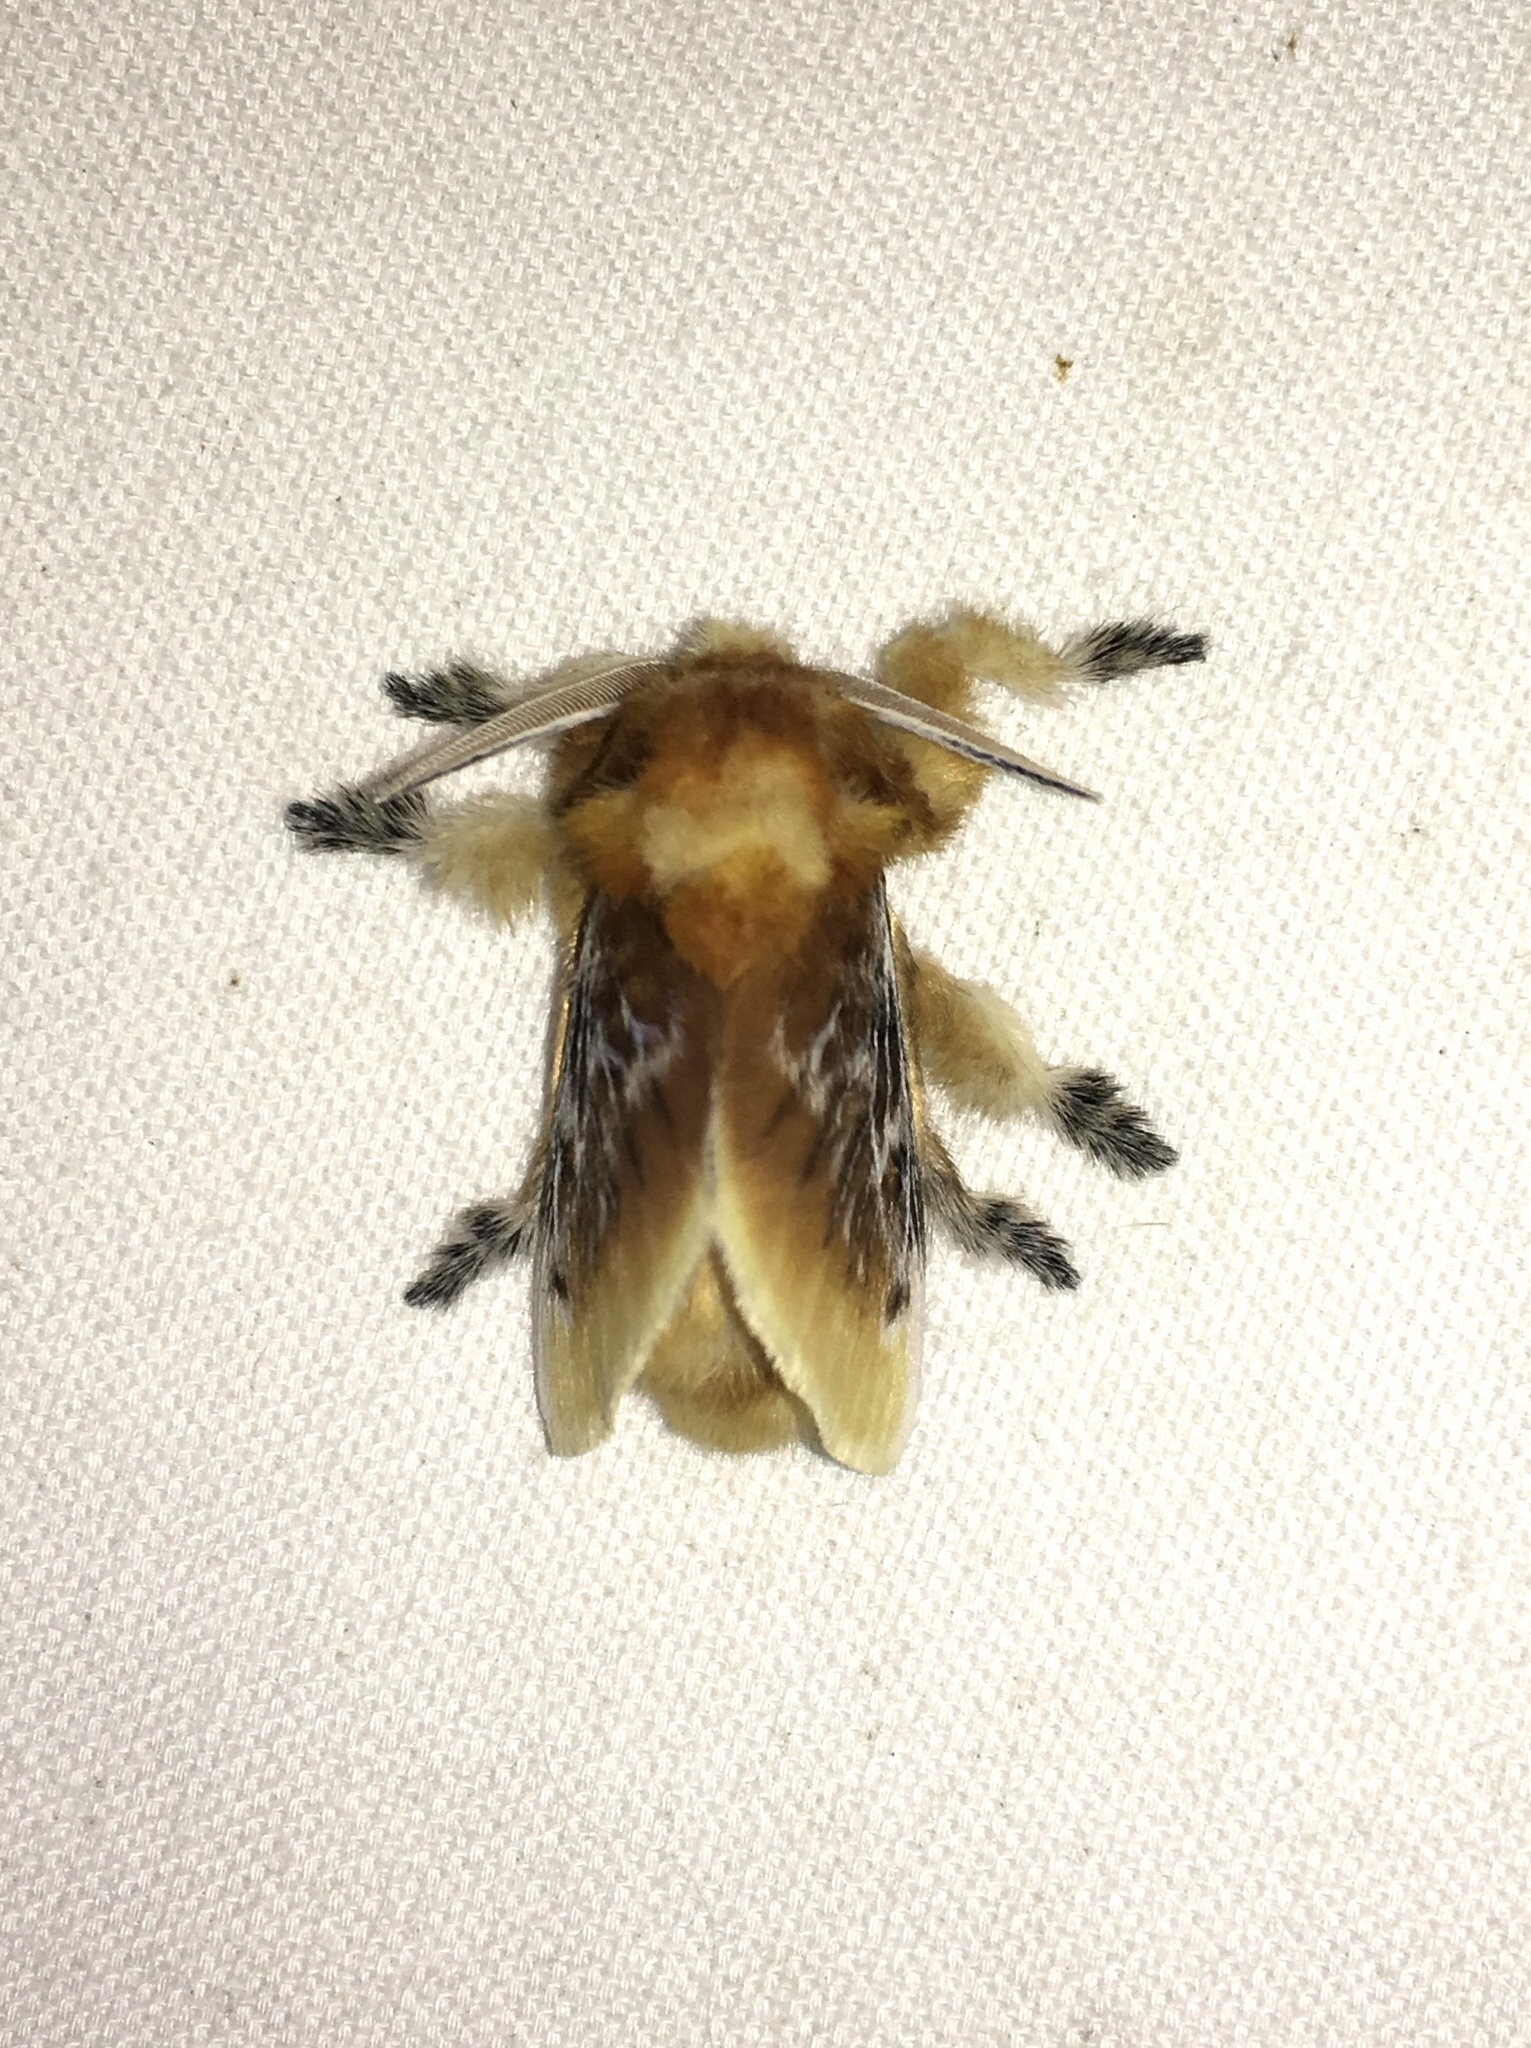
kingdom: Animalia
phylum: Arthropoda
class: Insecta
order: Lepidoptera
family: Megalopygidae
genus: Megalopyge
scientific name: Megalopyge opercularis
